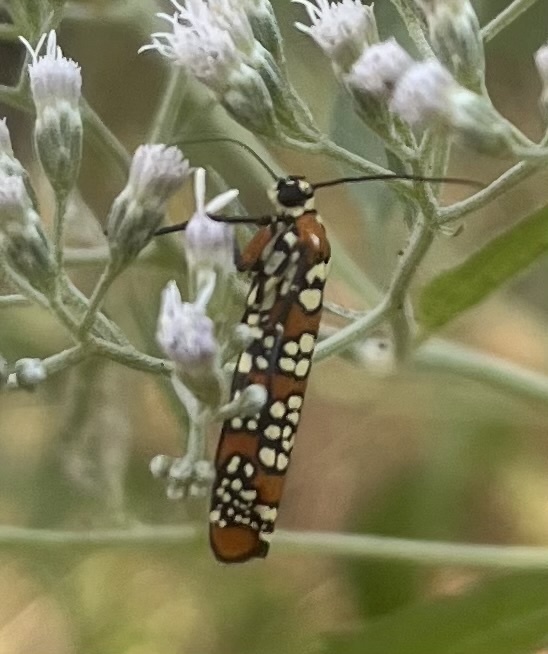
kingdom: Animalia
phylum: Arthropoda
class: Insecta
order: Lepidoptera
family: Attevidae
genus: Atteva
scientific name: Atteva punctella
